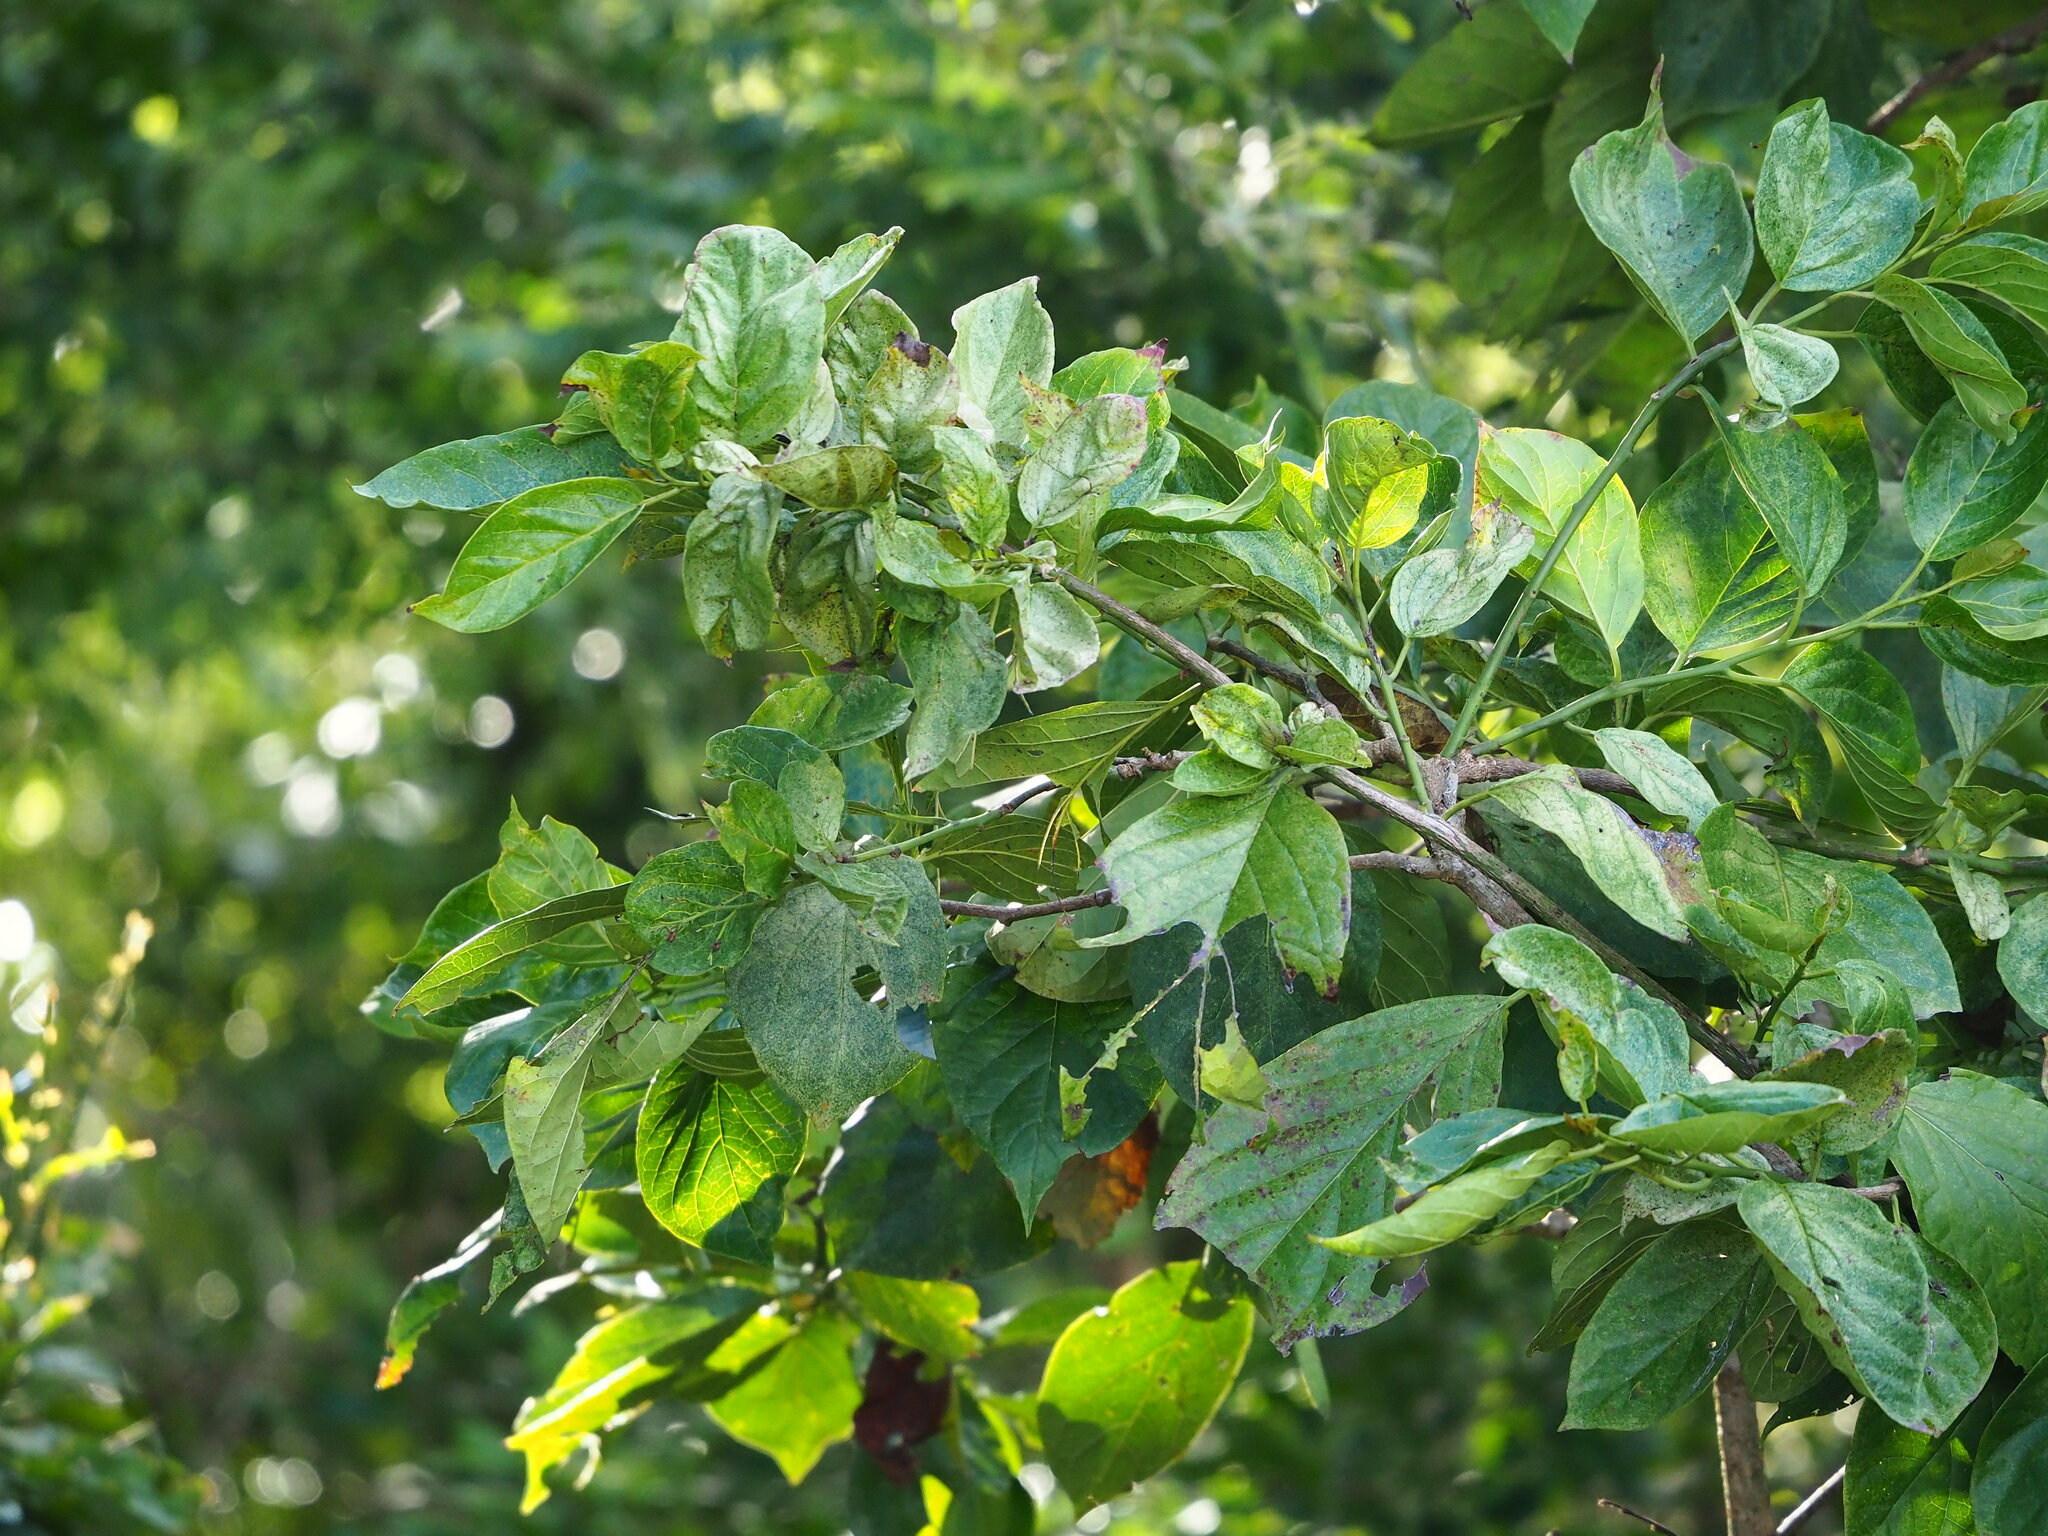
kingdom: Plantae
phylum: Tracheophyta
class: Magnoliopsida
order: Boraginales
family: Ehretiaceae
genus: Ehretia
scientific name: Ehretia resinosa
